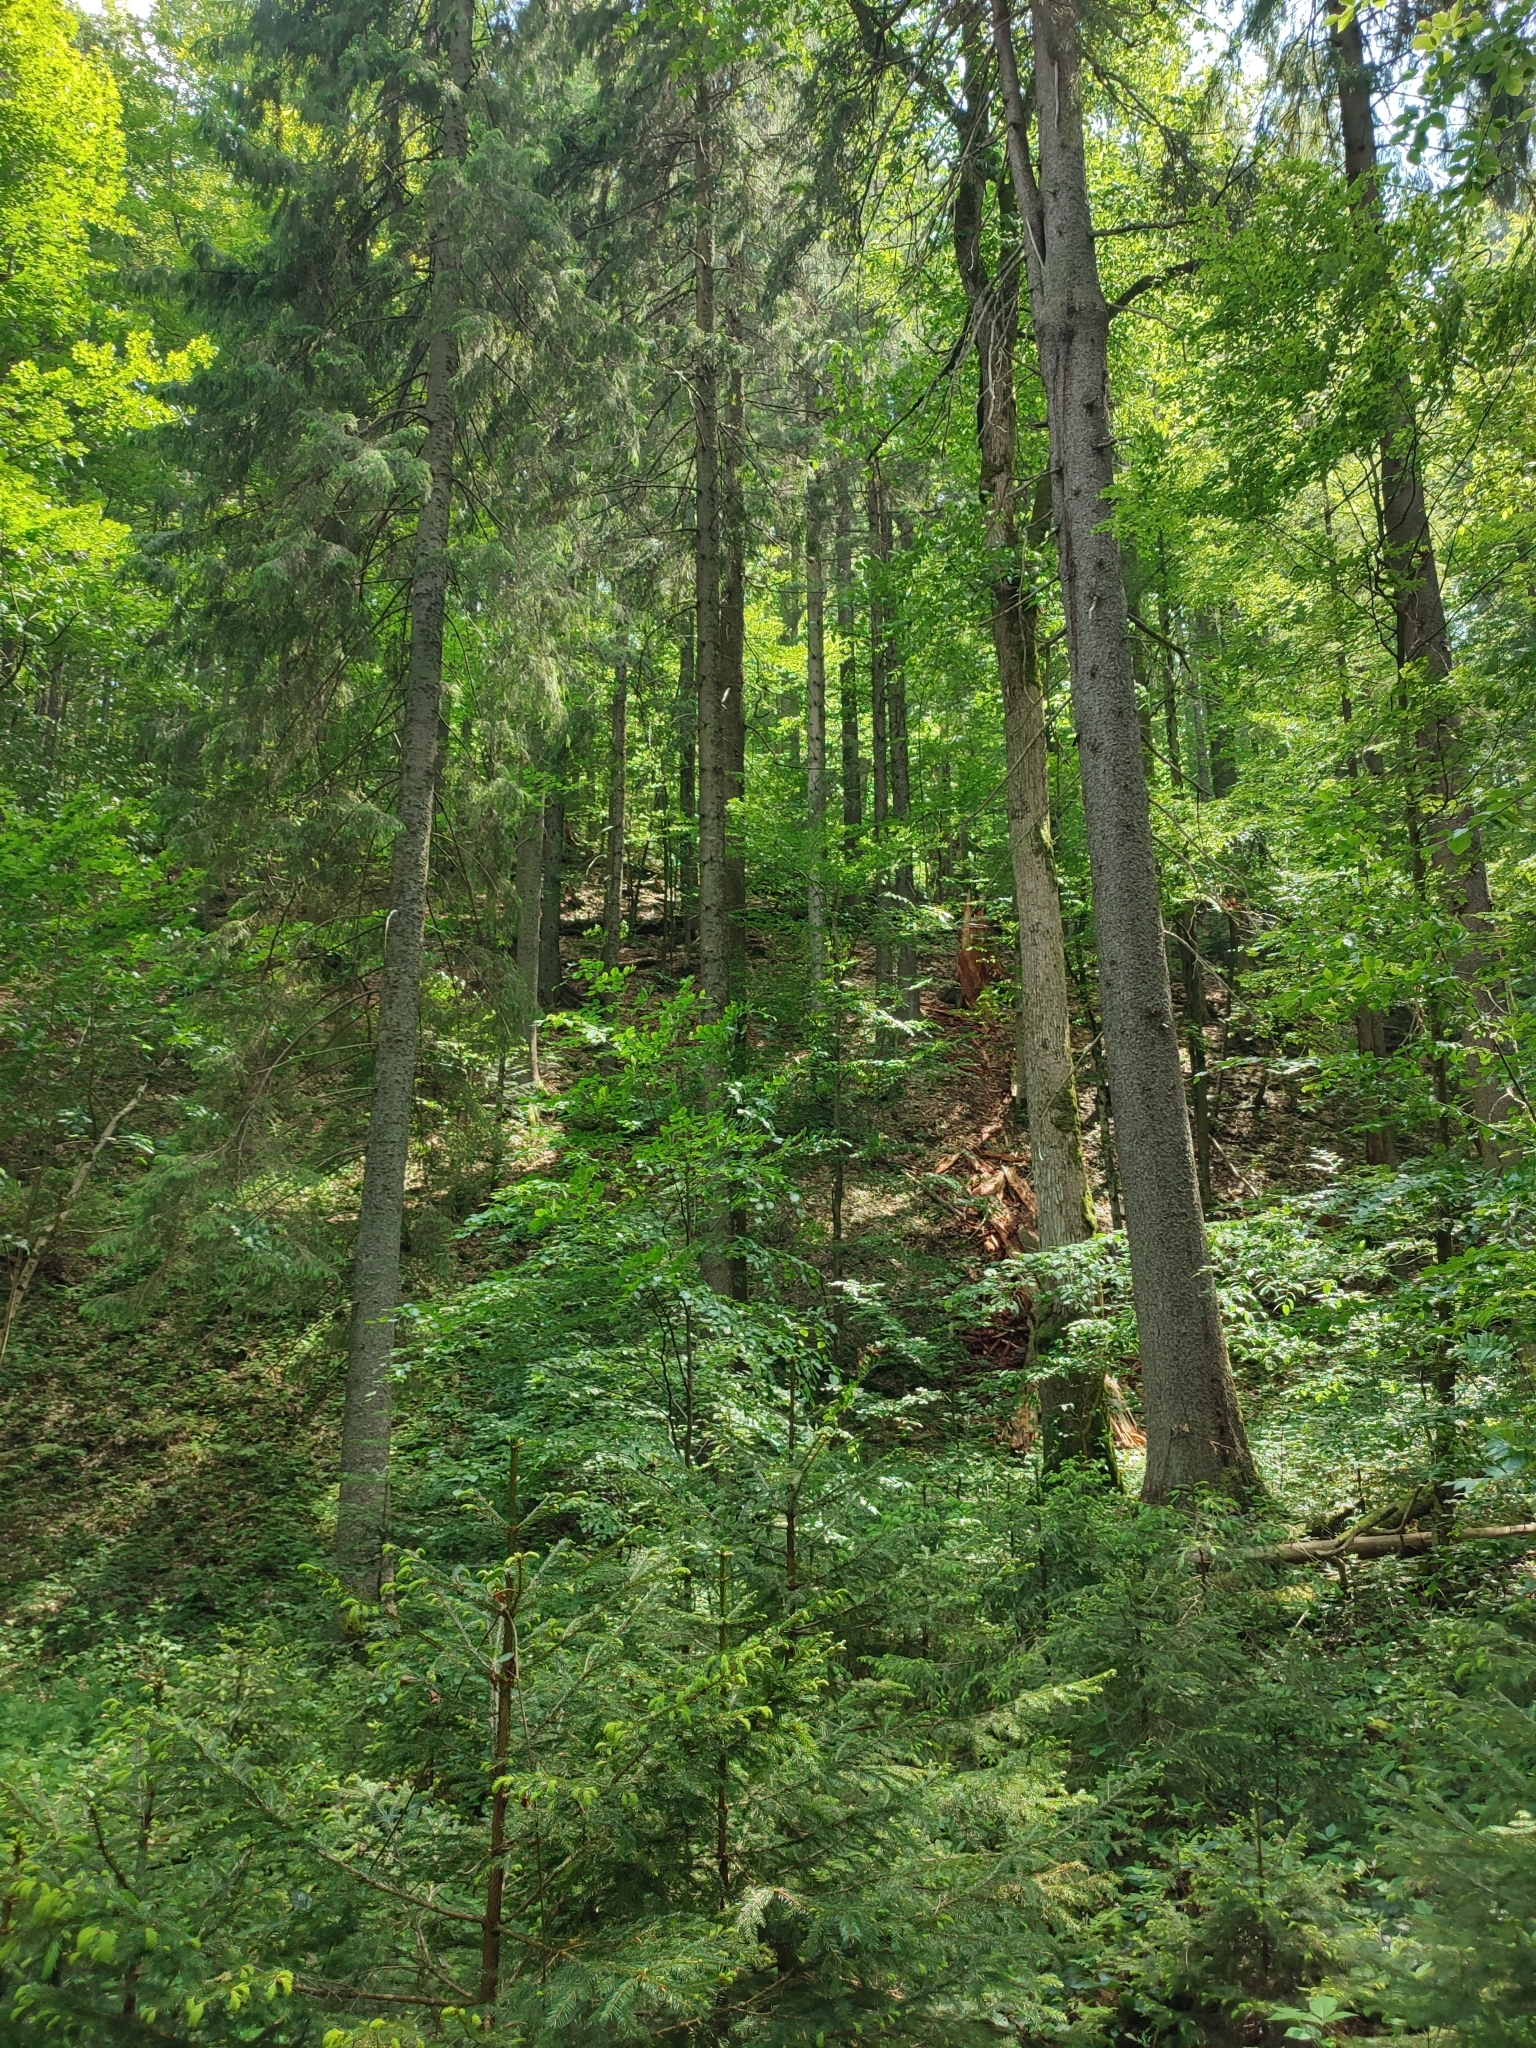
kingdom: Plantae
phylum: Tracheophyta
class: Pinopsida
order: Pinales
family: Pinaceae
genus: Abies
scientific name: Abies alba
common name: Silver fir
